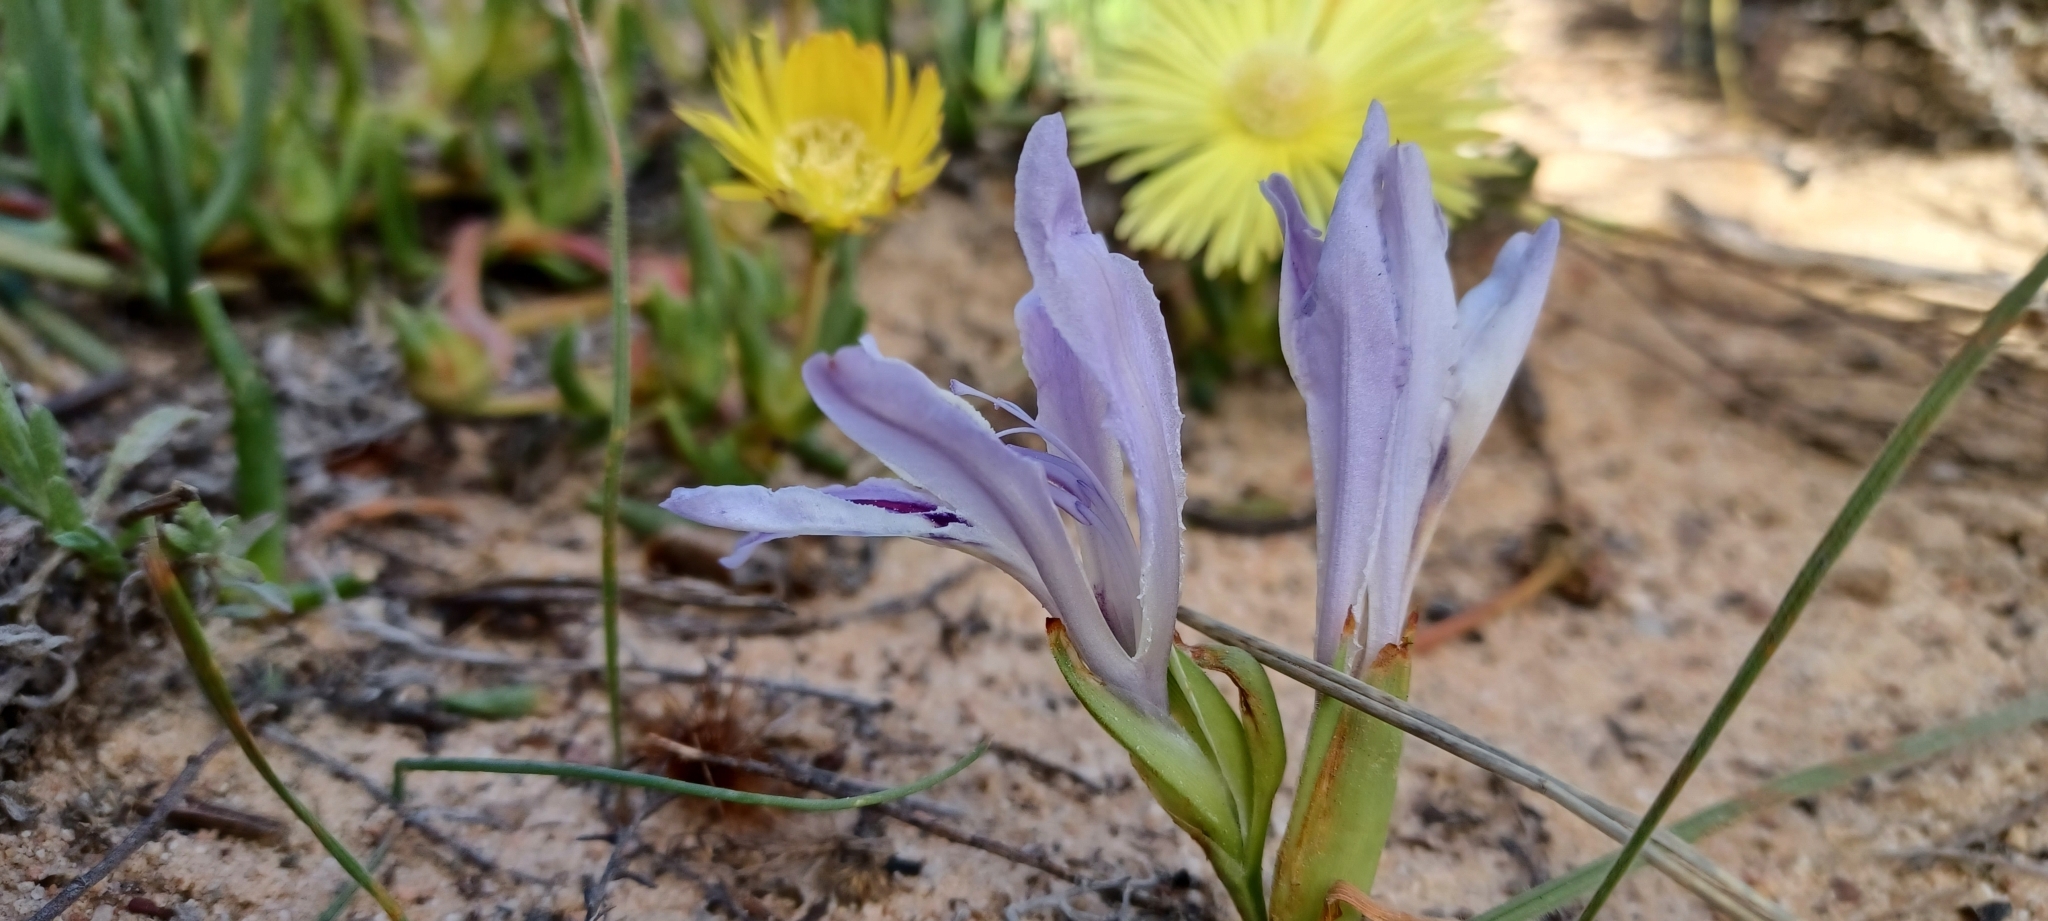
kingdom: Plantae
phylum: Tracheophyta
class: Liliopsida
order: Asparagales
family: Iridaceae
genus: Babiana
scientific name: Babiana ambigua
